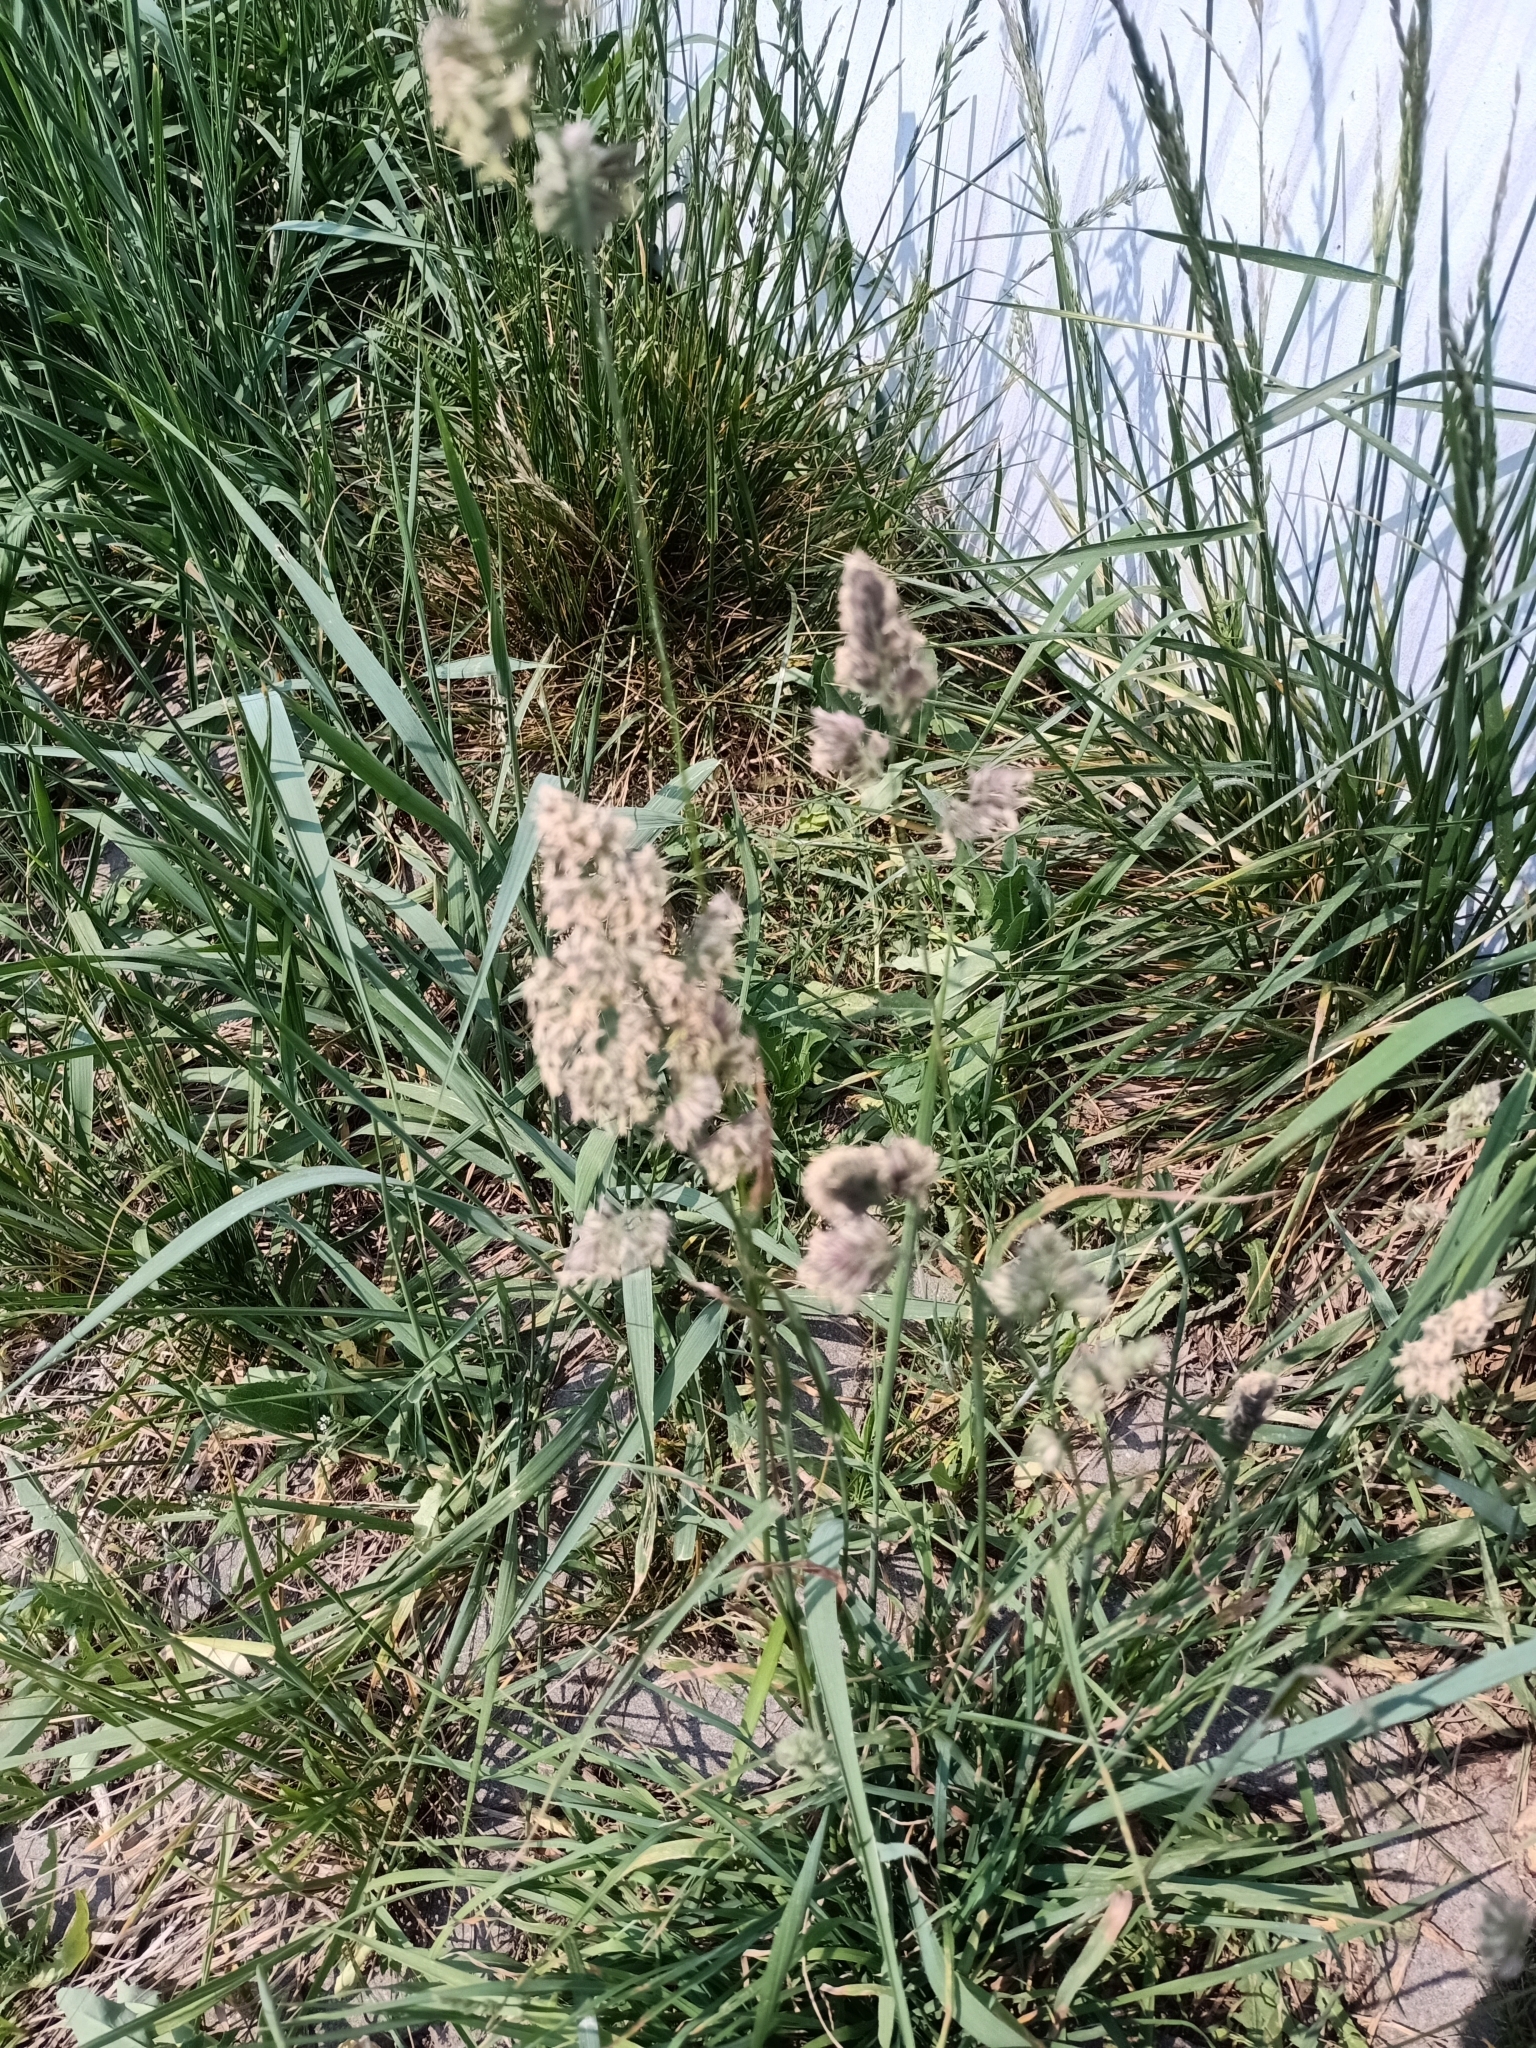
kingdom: Plantae
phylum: Tracheophyta
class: Liliopsida
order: Poales
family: Poaceae
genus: Dactylis
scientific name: Dactylis glomerata
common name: Orchardgrass
